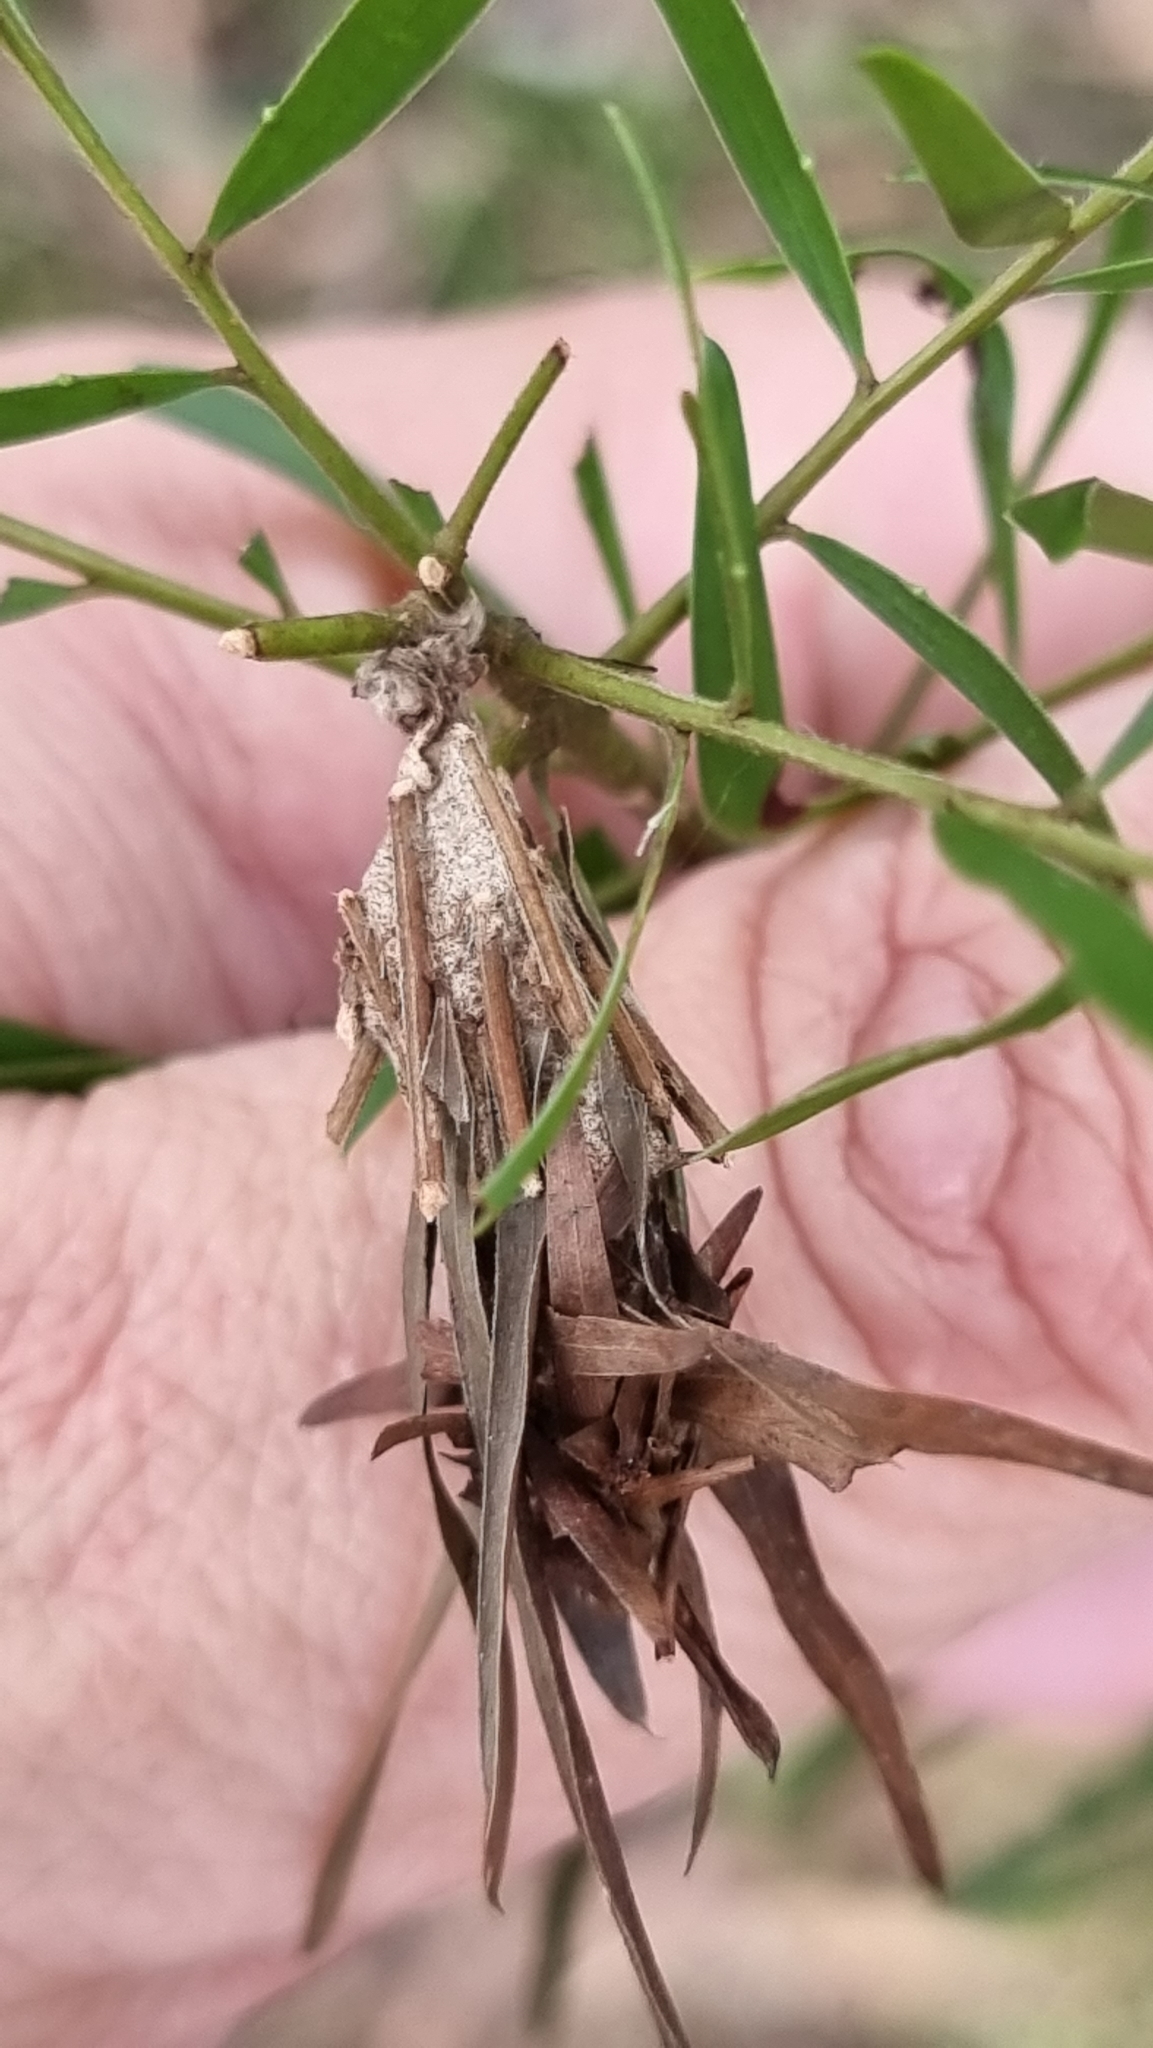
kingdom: Animalia
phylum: Arthropoda
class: Insecta
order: Lepidoptera
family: Psychidae
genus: Metura
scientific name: Metura elongatus
